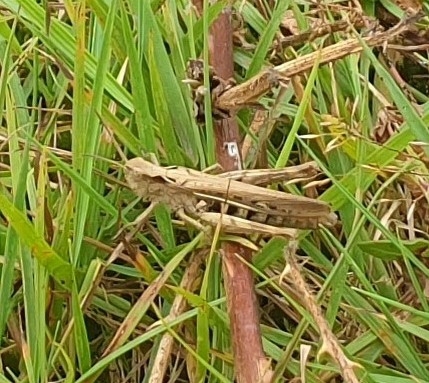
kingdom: Animalia
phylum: Arthropoda
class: Insecta
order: Orthoptera
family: Acrididae
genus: Chorthippus
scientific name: Chorthippus brunneus
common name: Field grasshopper
